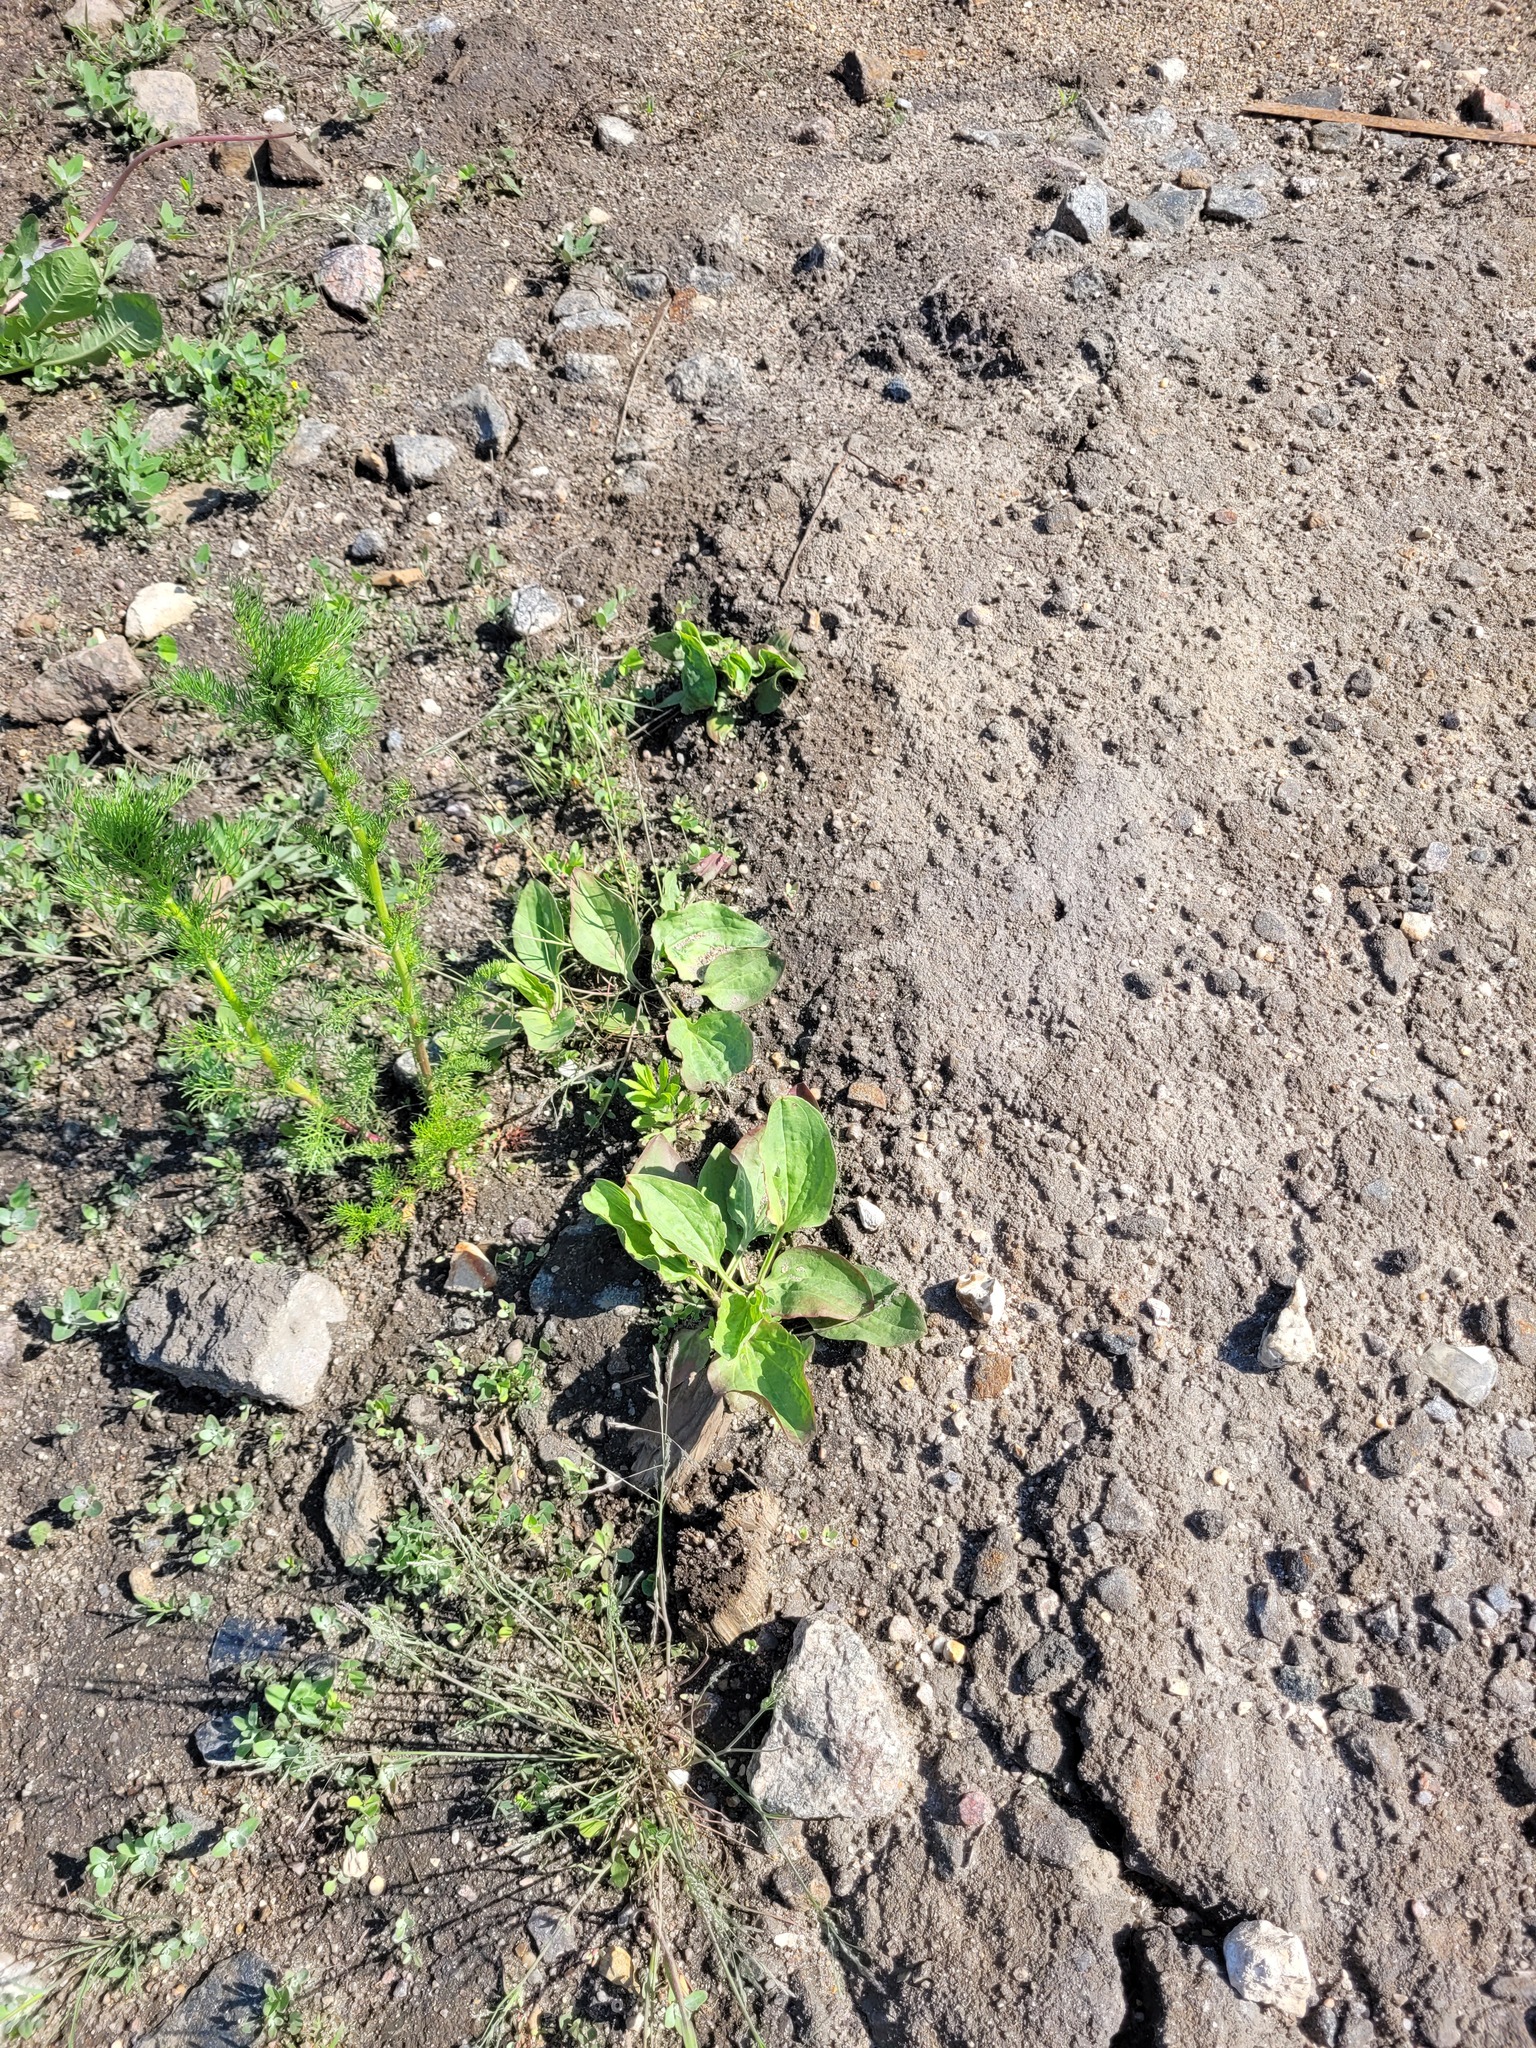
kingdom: Plantae
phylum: Tracheophyta
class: Magnoliopsida
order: Lamiales
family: Plantaginaceae
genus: Plantago
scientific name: Plantago major
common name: Common plantain
